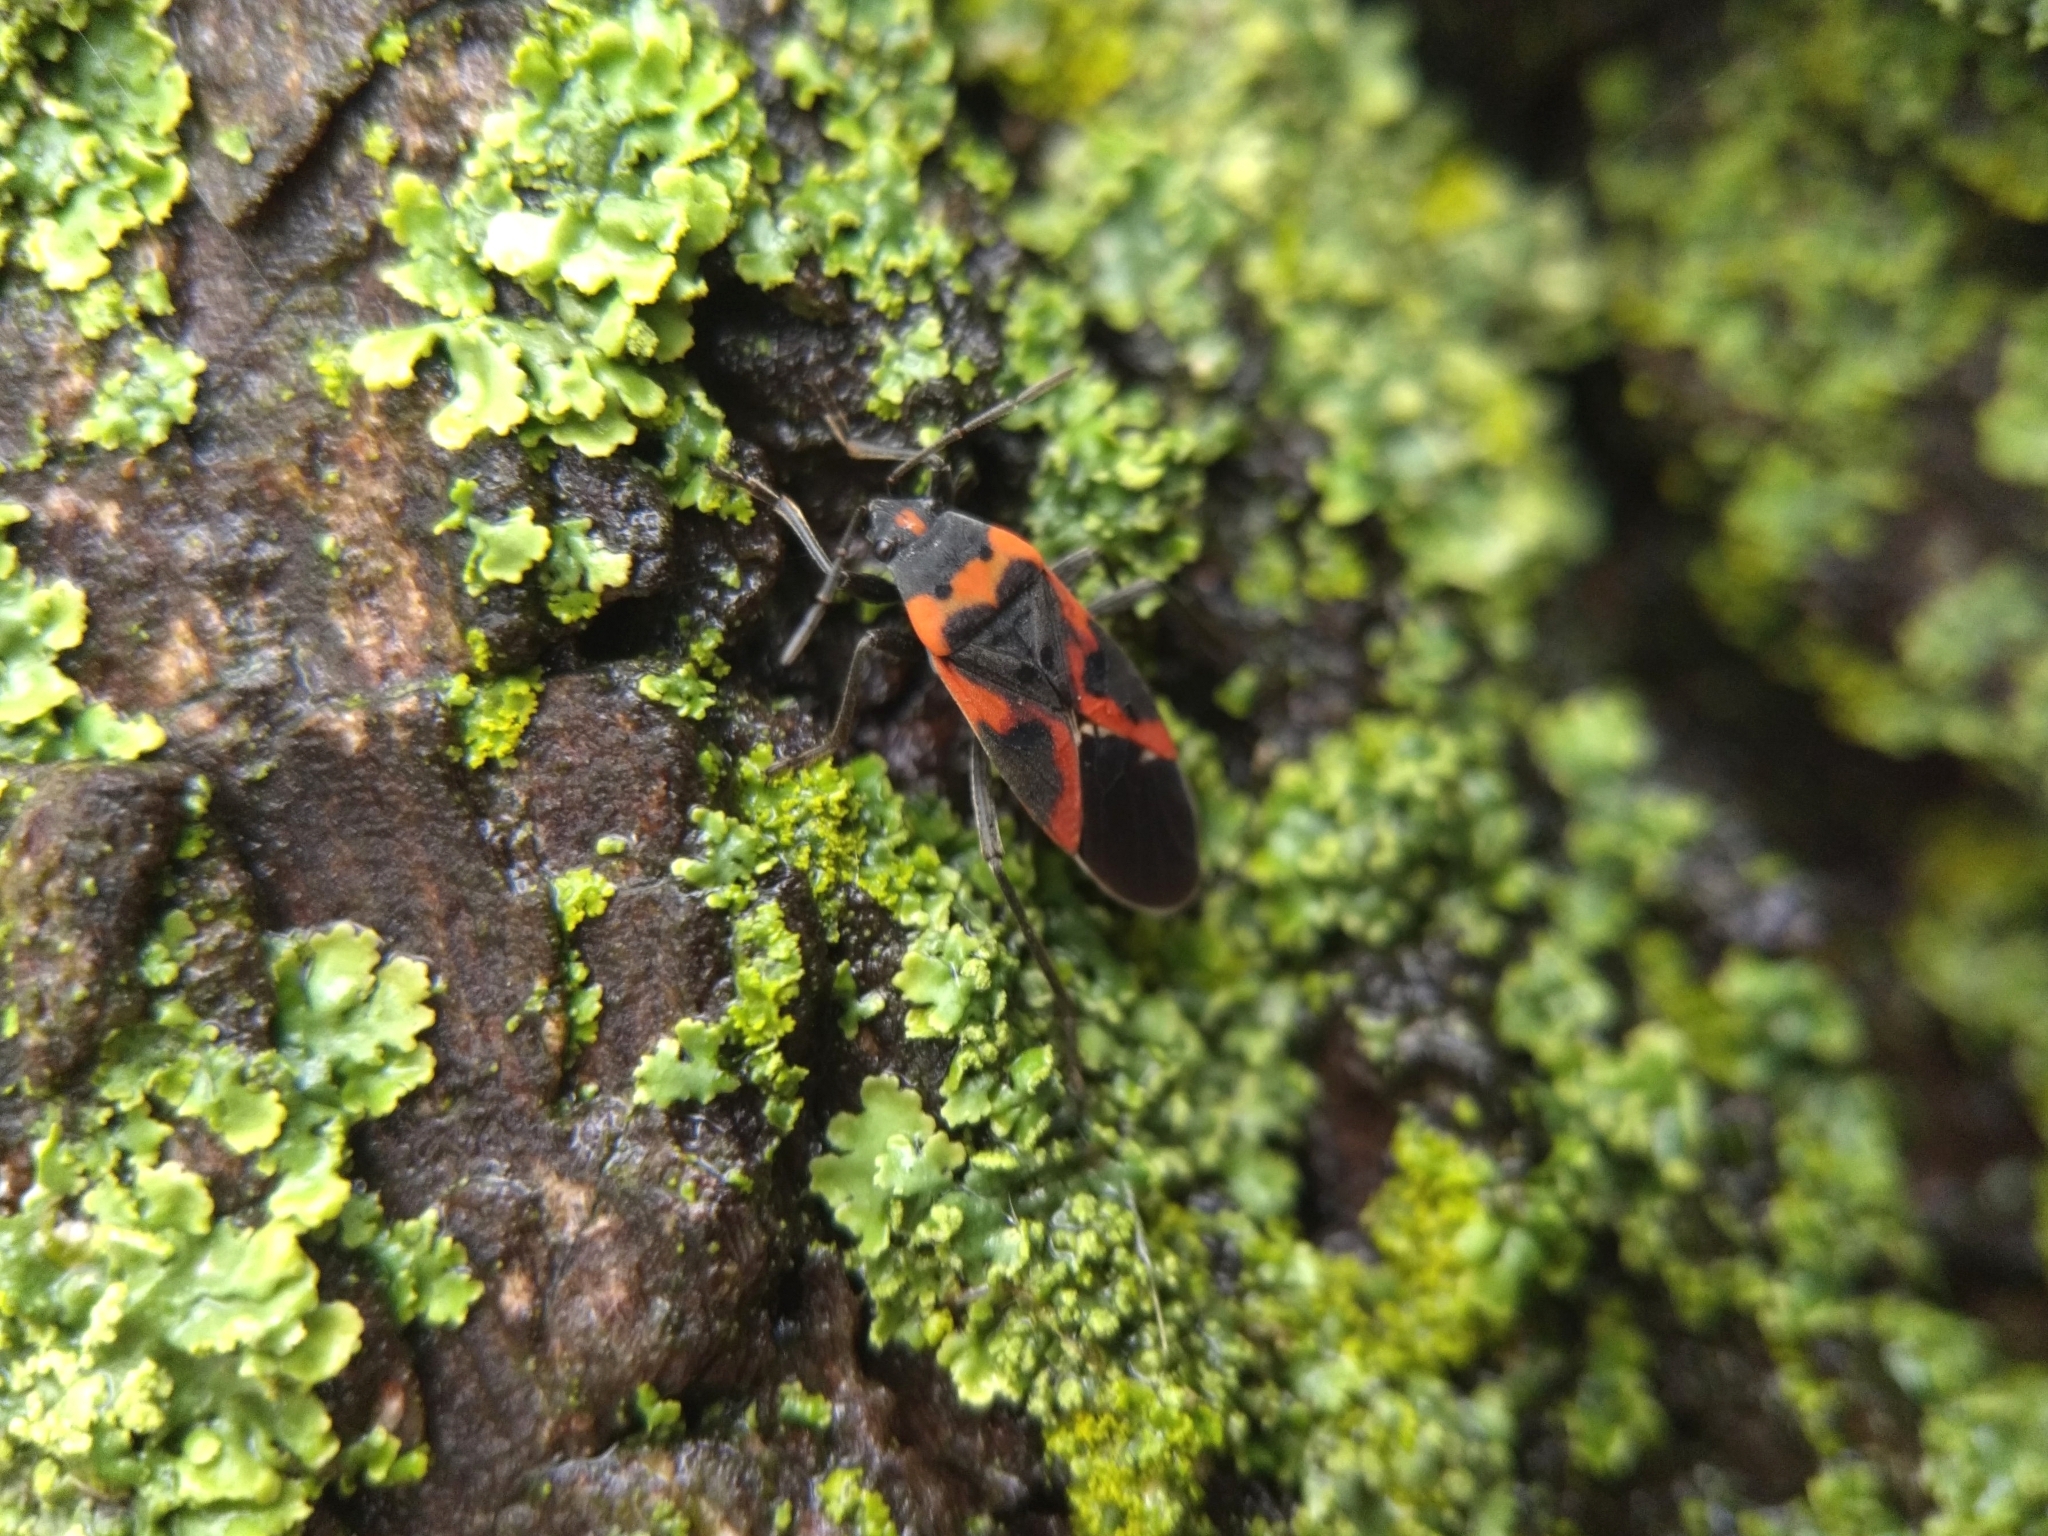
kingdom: Animalia
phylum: Arthropoda
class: Insecta
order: Hemiptera
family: Lygaeidae
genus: Lygaeus
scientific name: Lygaeus kalmii
